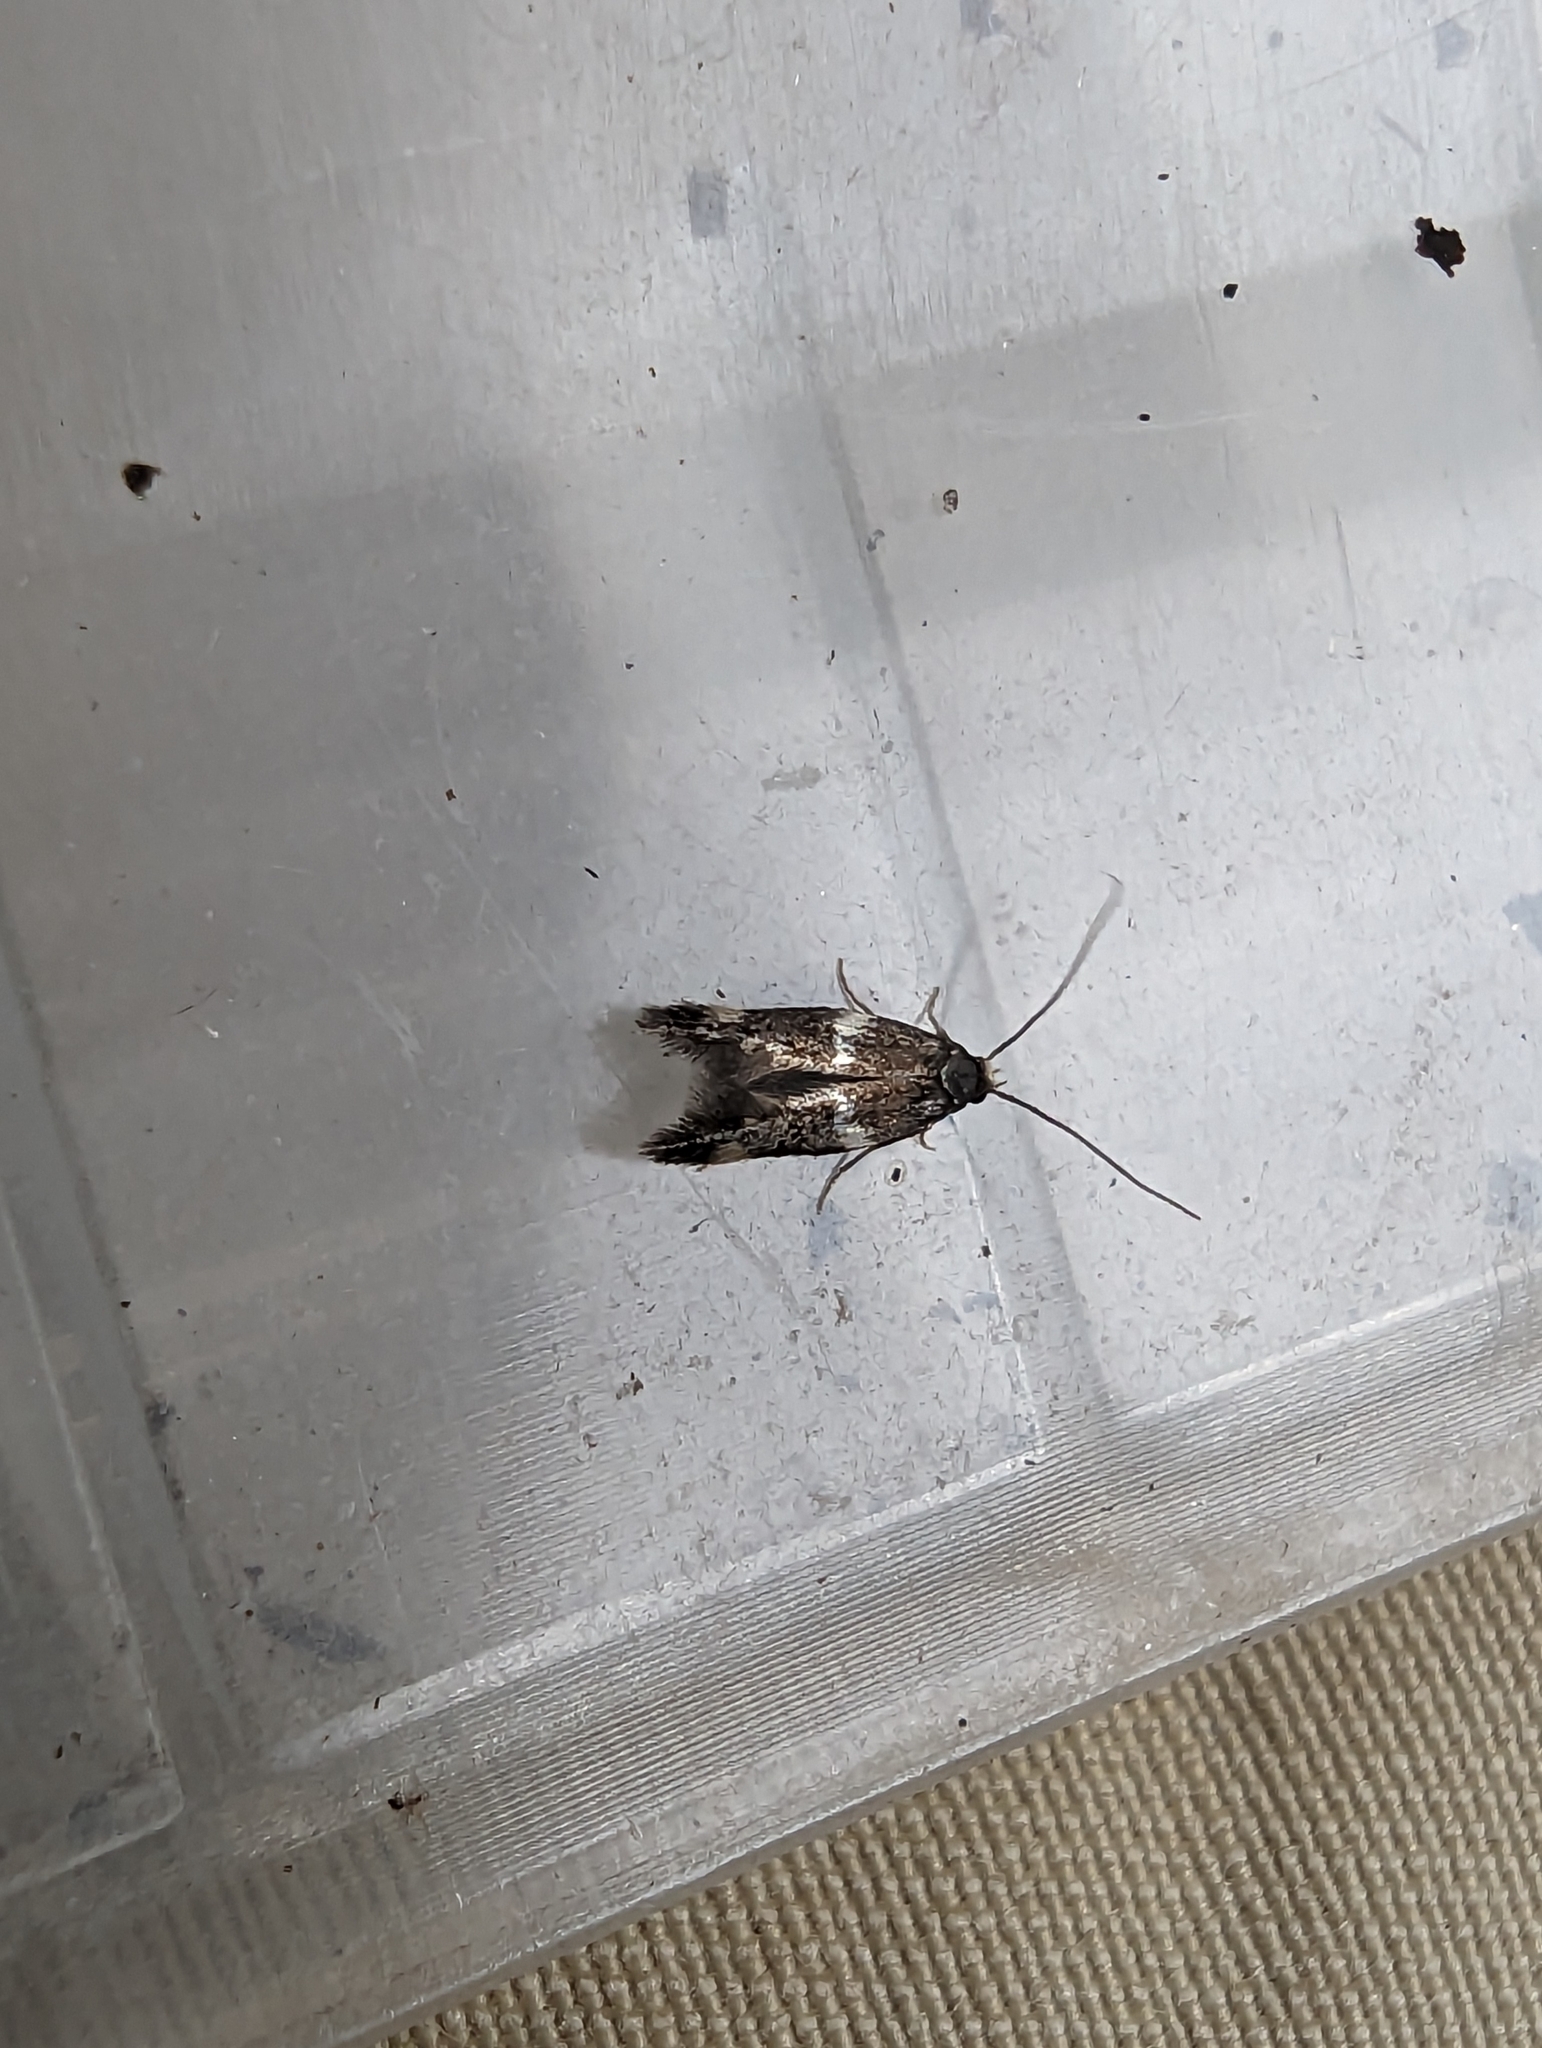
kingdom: Animalia
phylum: Arthropoda
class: Insecta
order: Lepidoptera
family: Momphidae
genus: Mompha
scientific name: Mompha subbistrigella
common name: Garden cosmet
